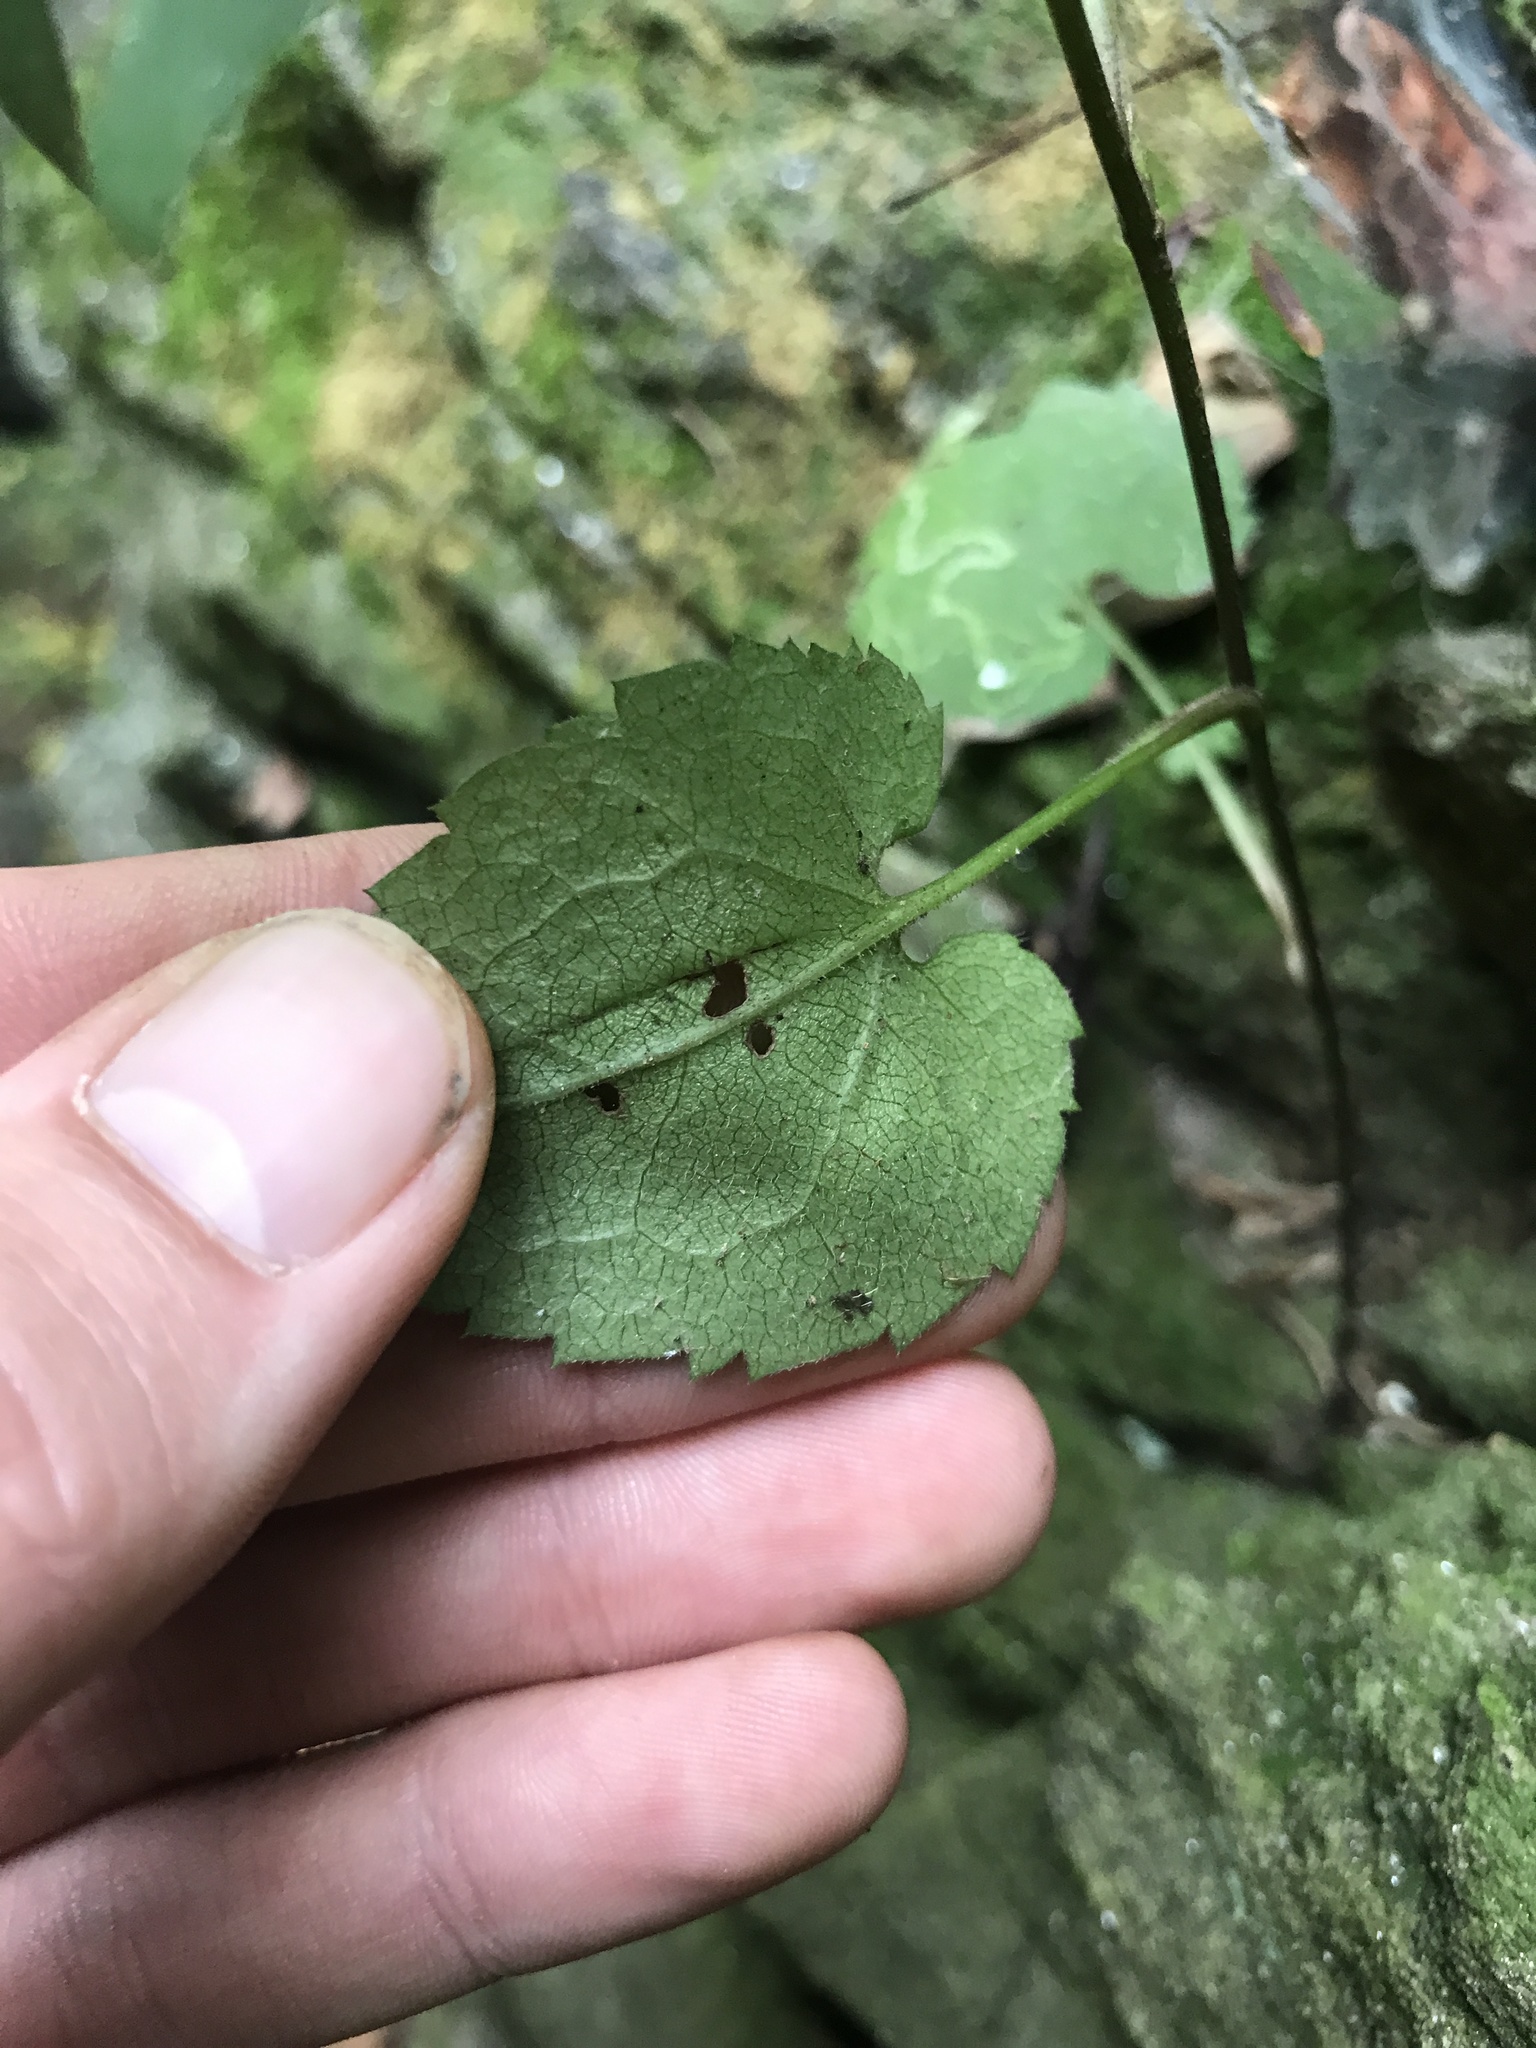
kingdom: Plantae
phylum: Tracheophyta
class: Magnoliopsida
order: Asterales
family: Asteraceae
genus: Symphyotrichum
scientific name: Symphyotrichum cordifolium
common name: Beeweed
